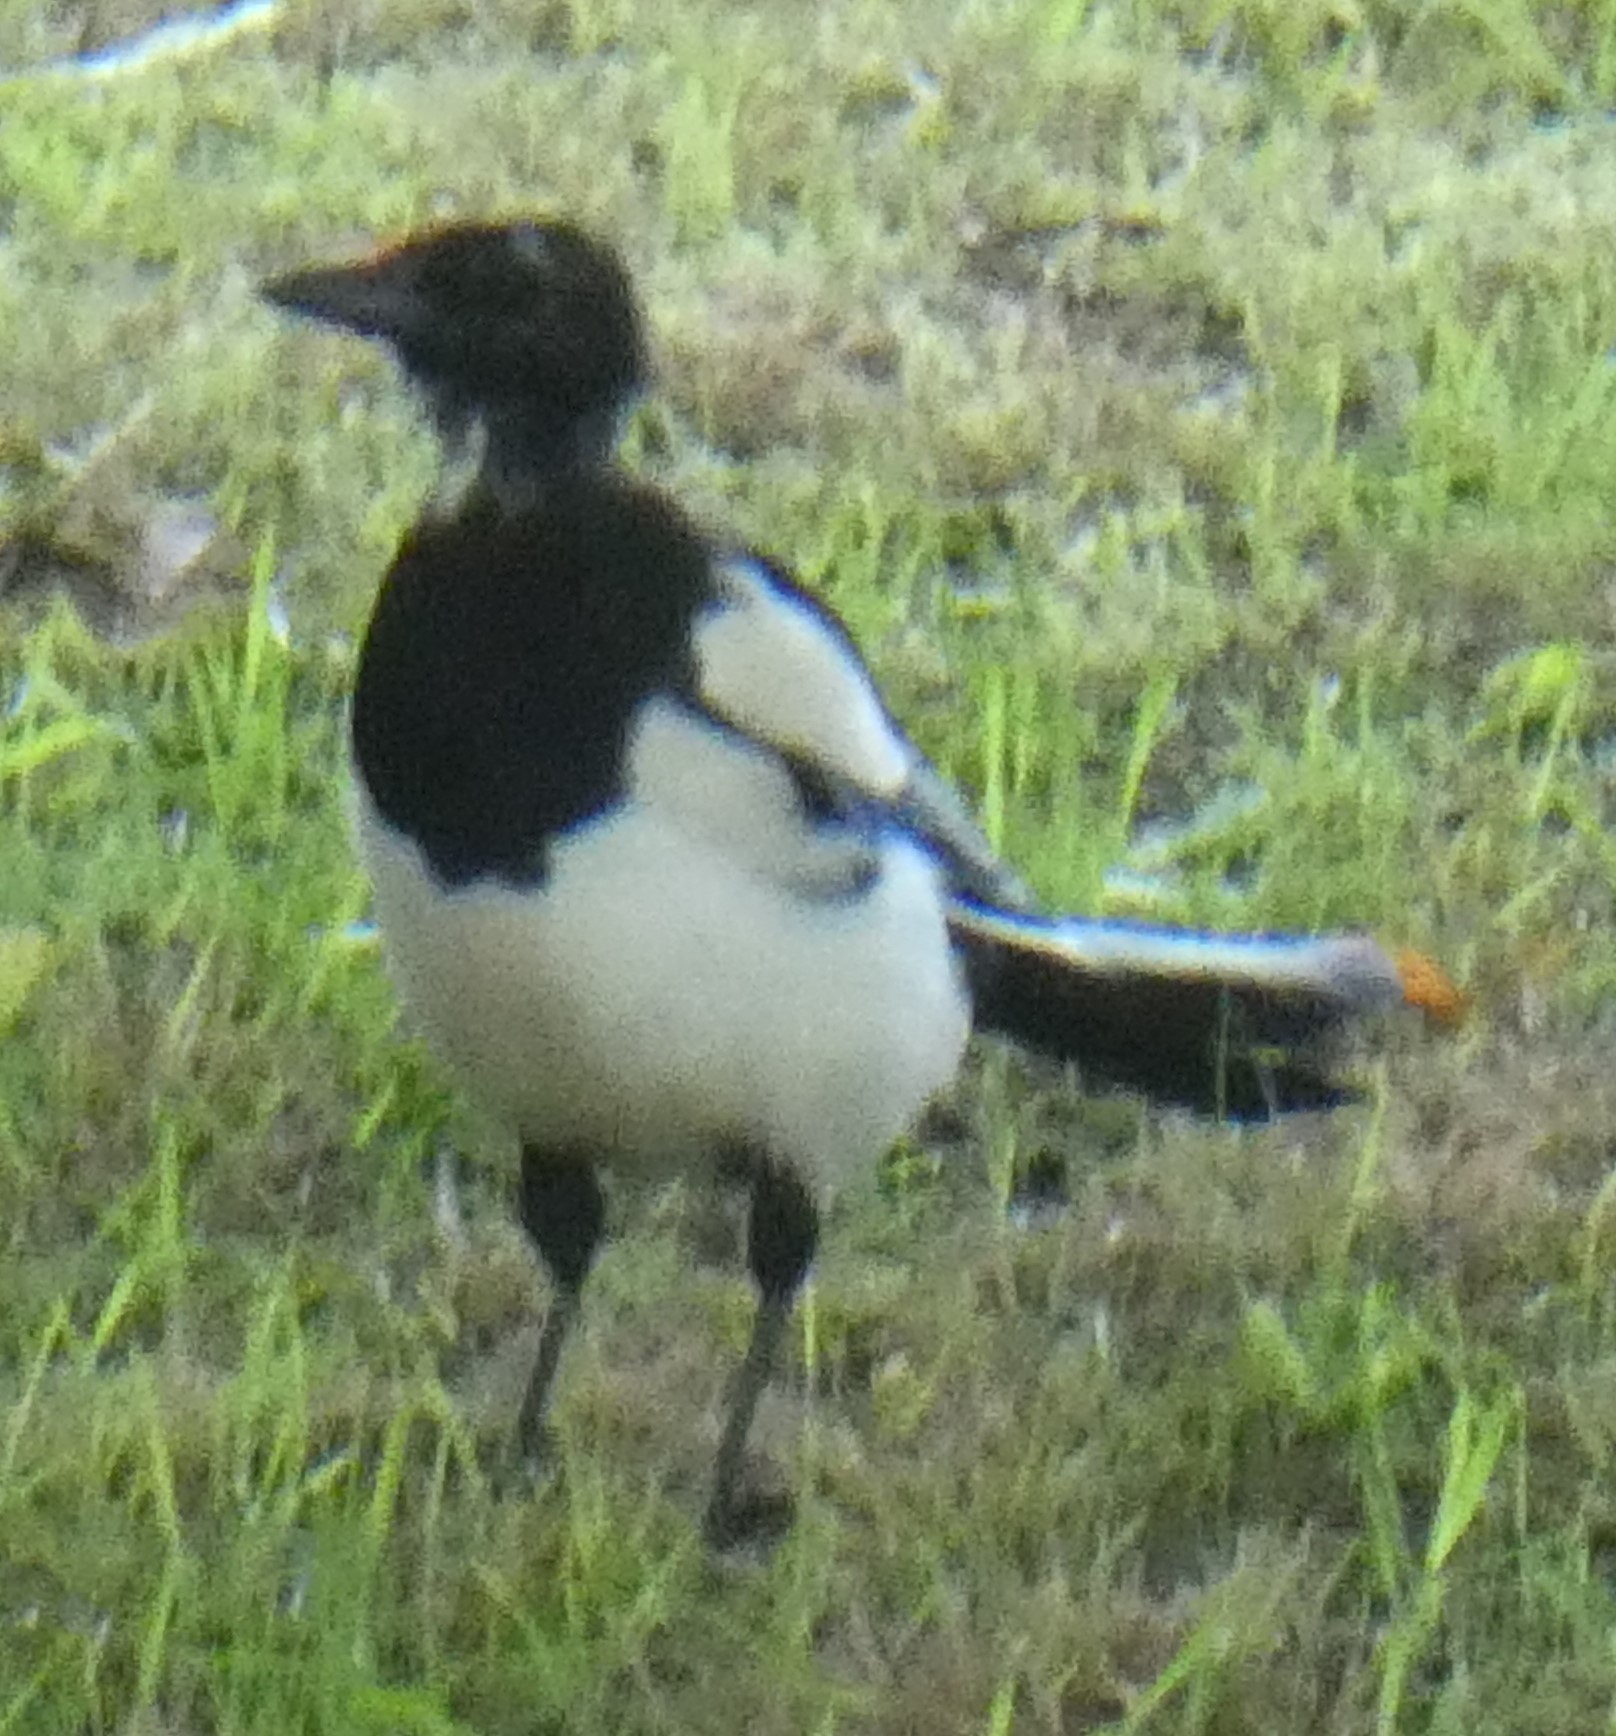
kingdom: Animalia
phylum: Chordata
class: Aves
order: Passeriformes
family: Corvidae
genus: Pica
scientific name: Pica pica
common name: Eurasian magpie
